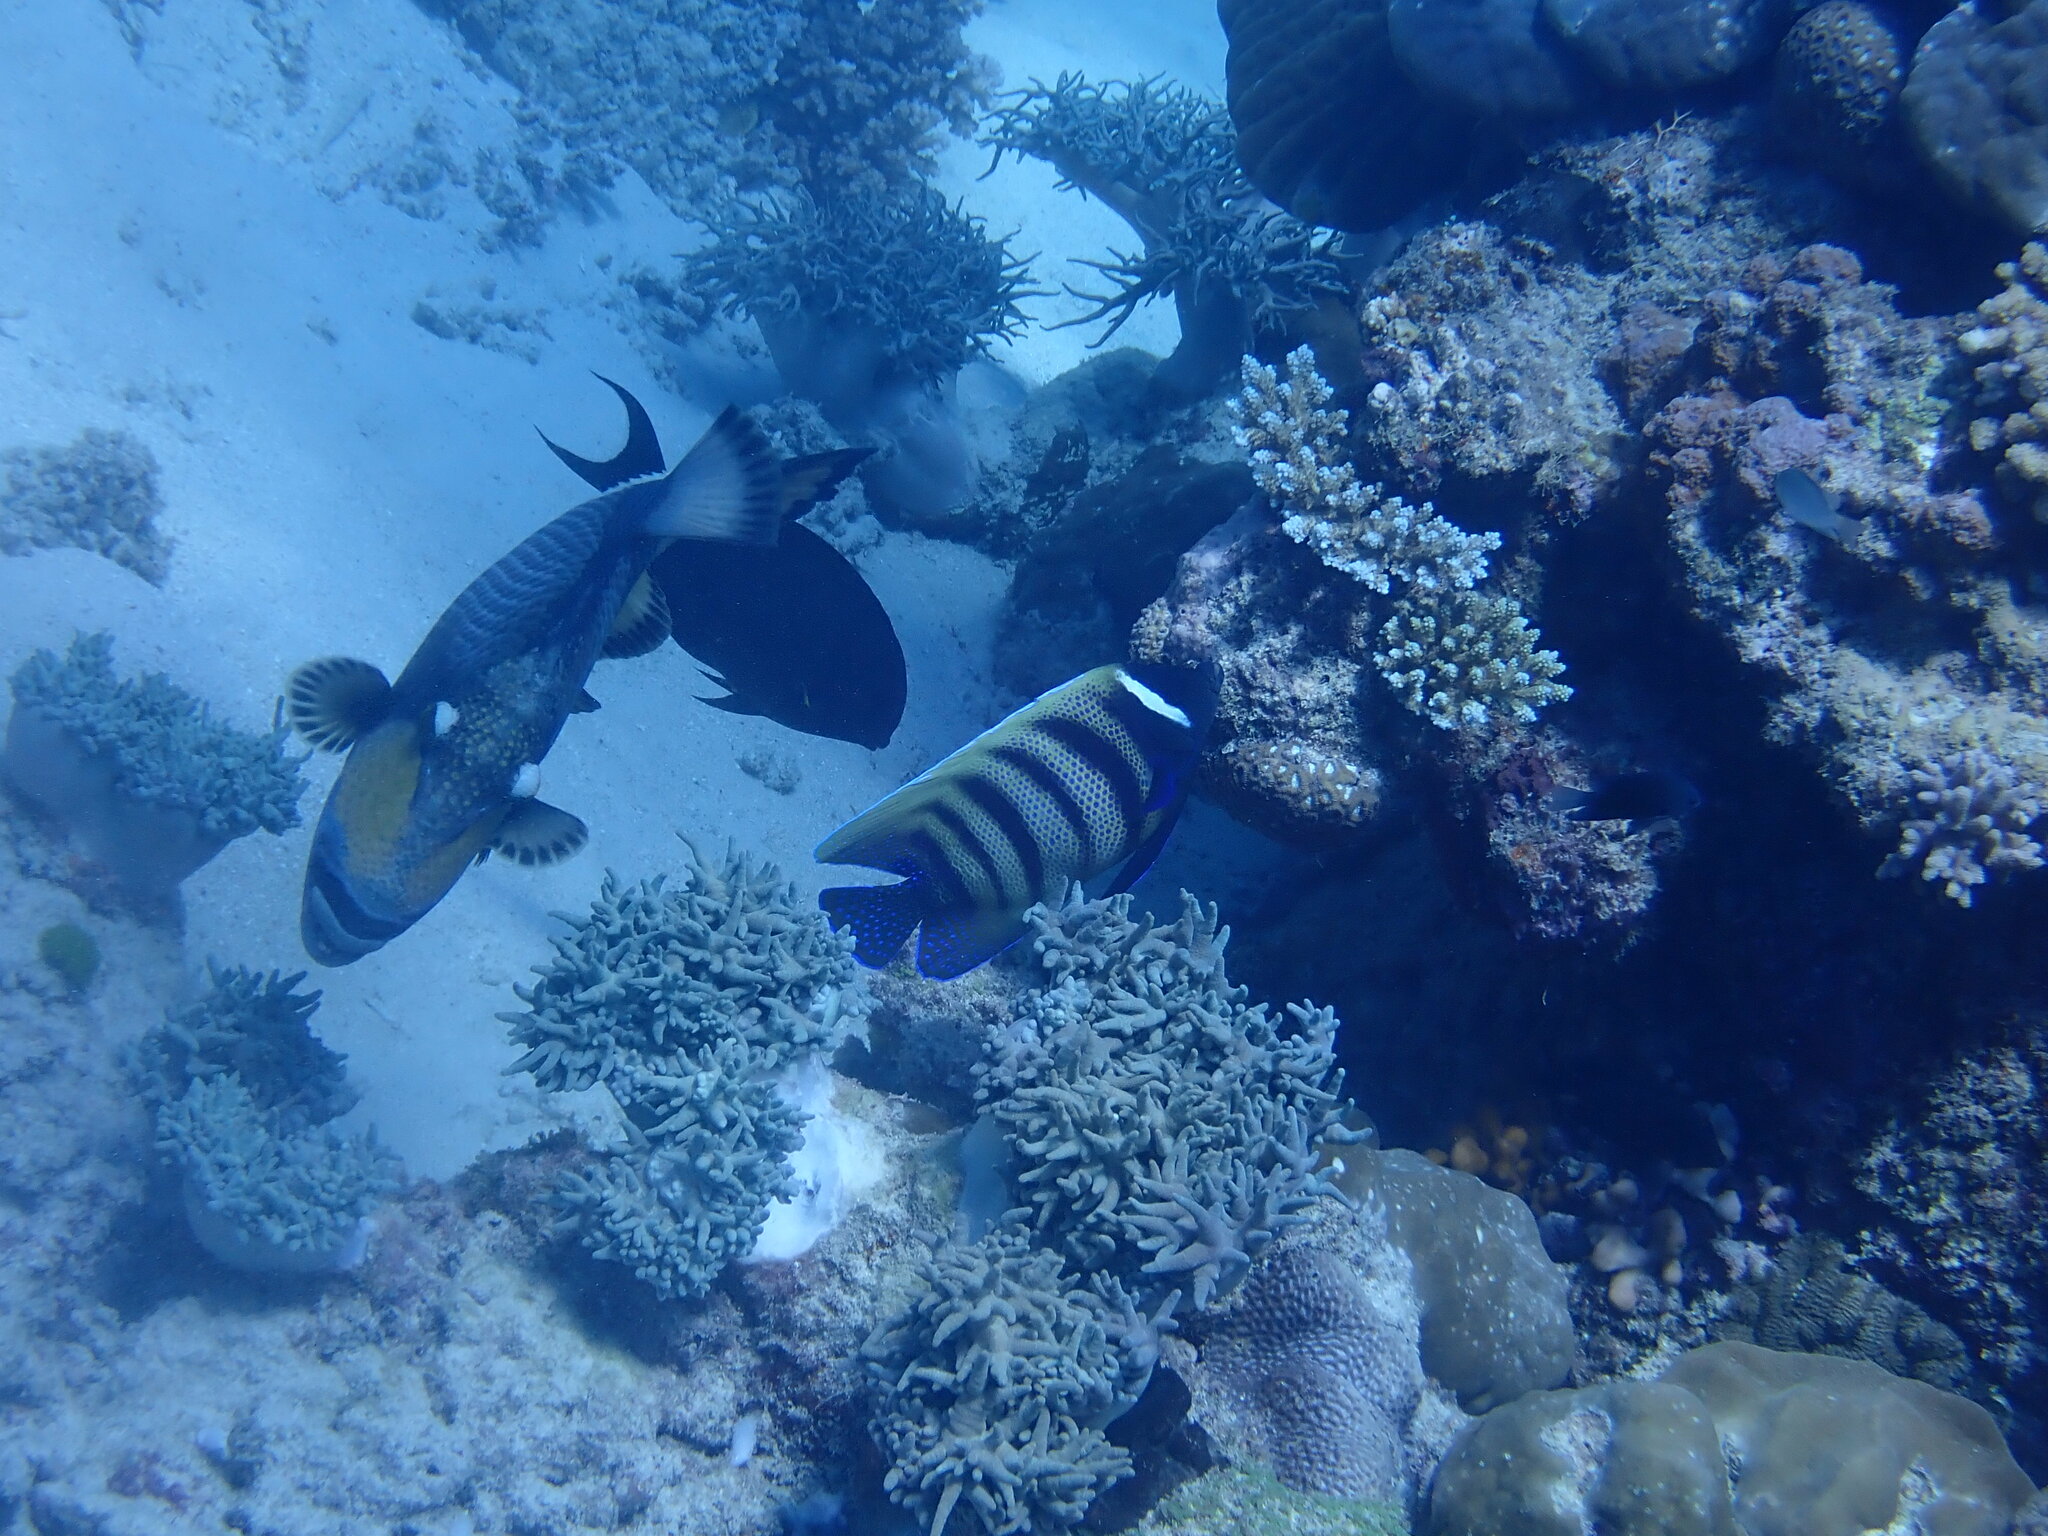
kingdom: Animalia
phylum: Chordata
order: Perciformes
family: Pomacanthidae
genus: Pomacanthus
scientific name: Pomacanthus sexstriatus
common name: Six-banded angelfish
